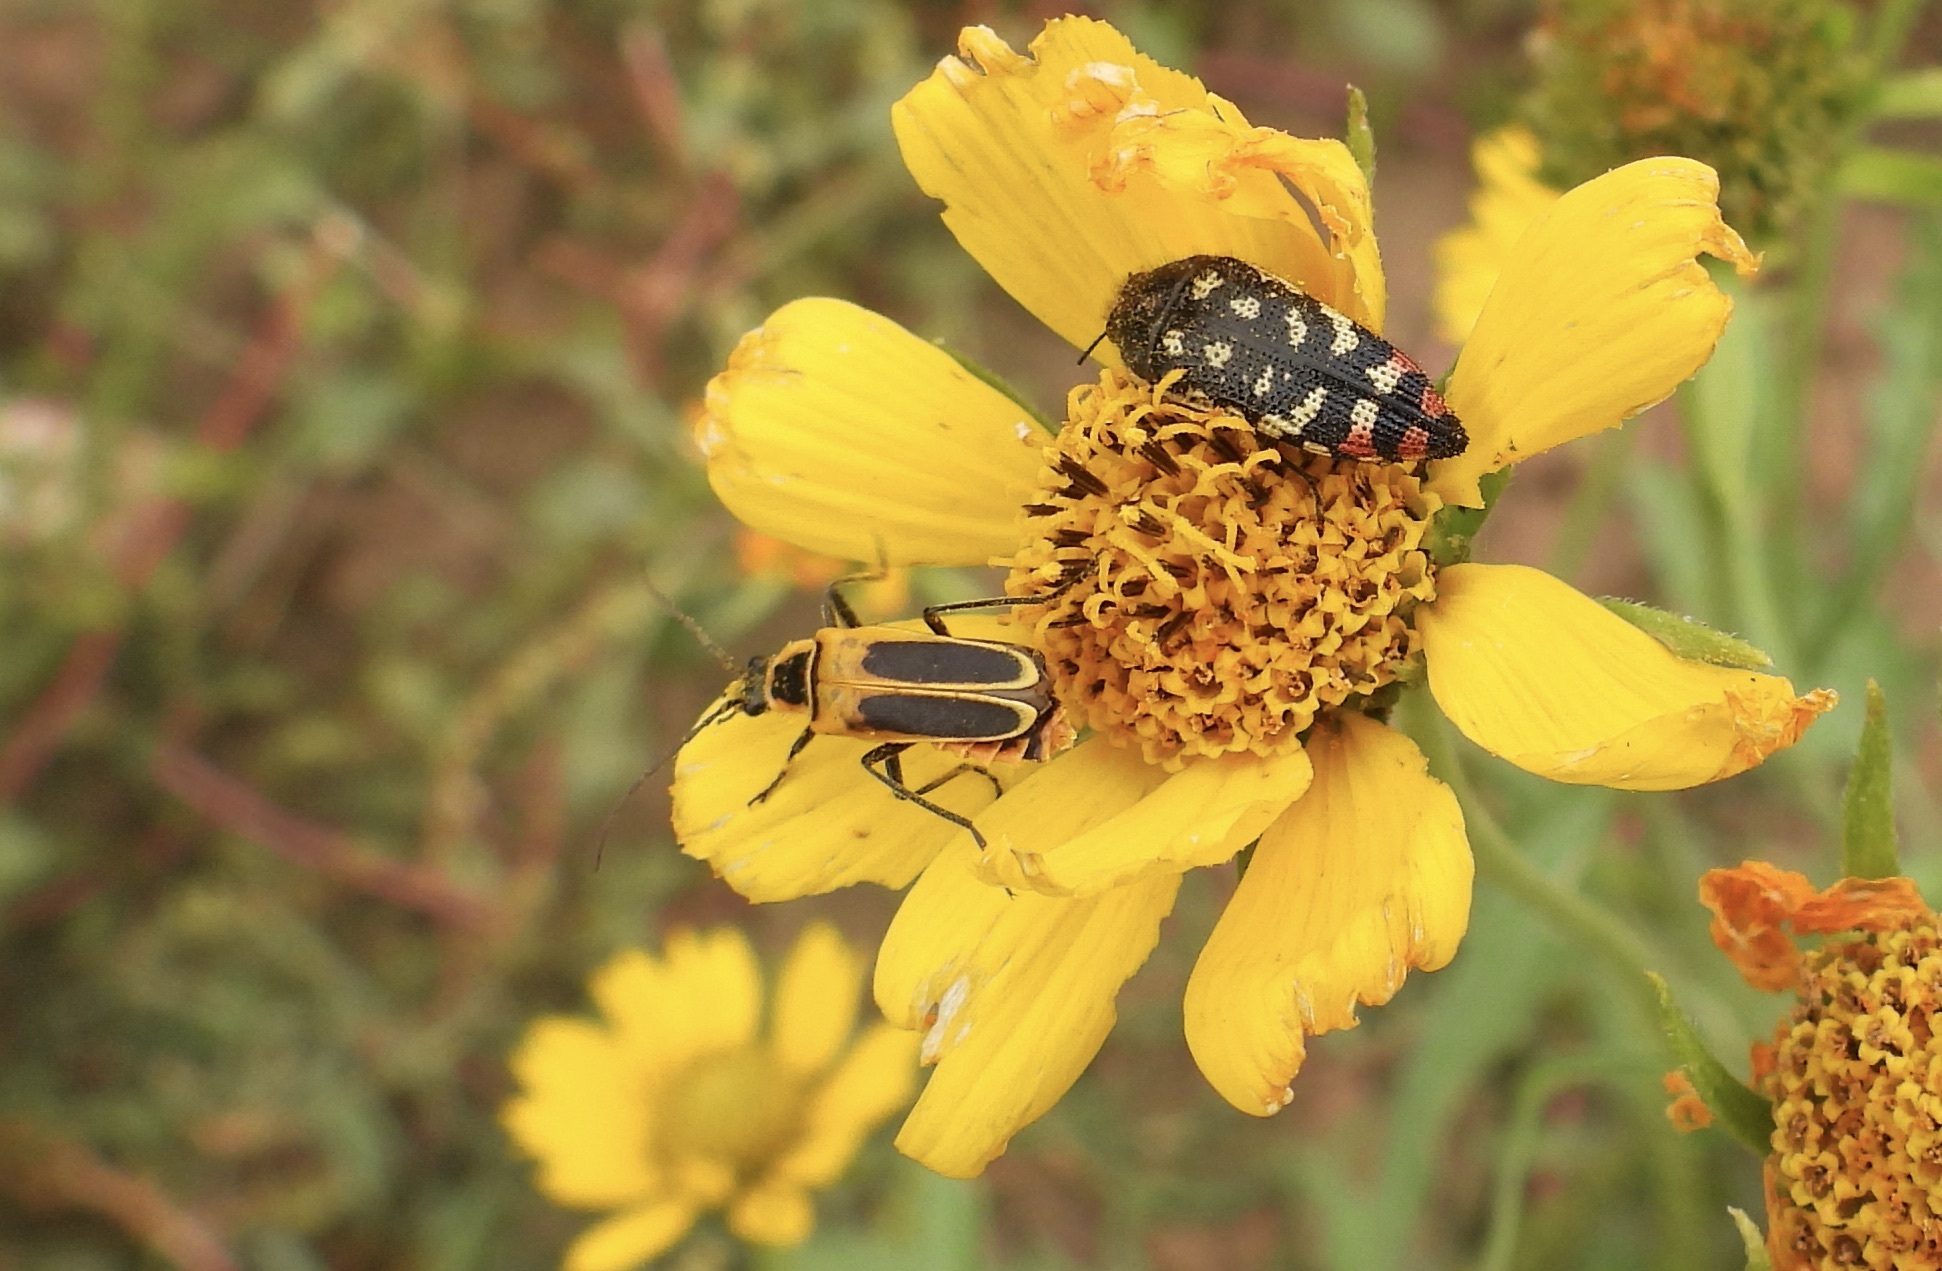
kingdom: Animalia
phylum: Arthropoda
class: Insecta
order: Coleoptera
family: Cantharidae
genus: Chauliognathus
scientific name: Chauliognathus lewisi
